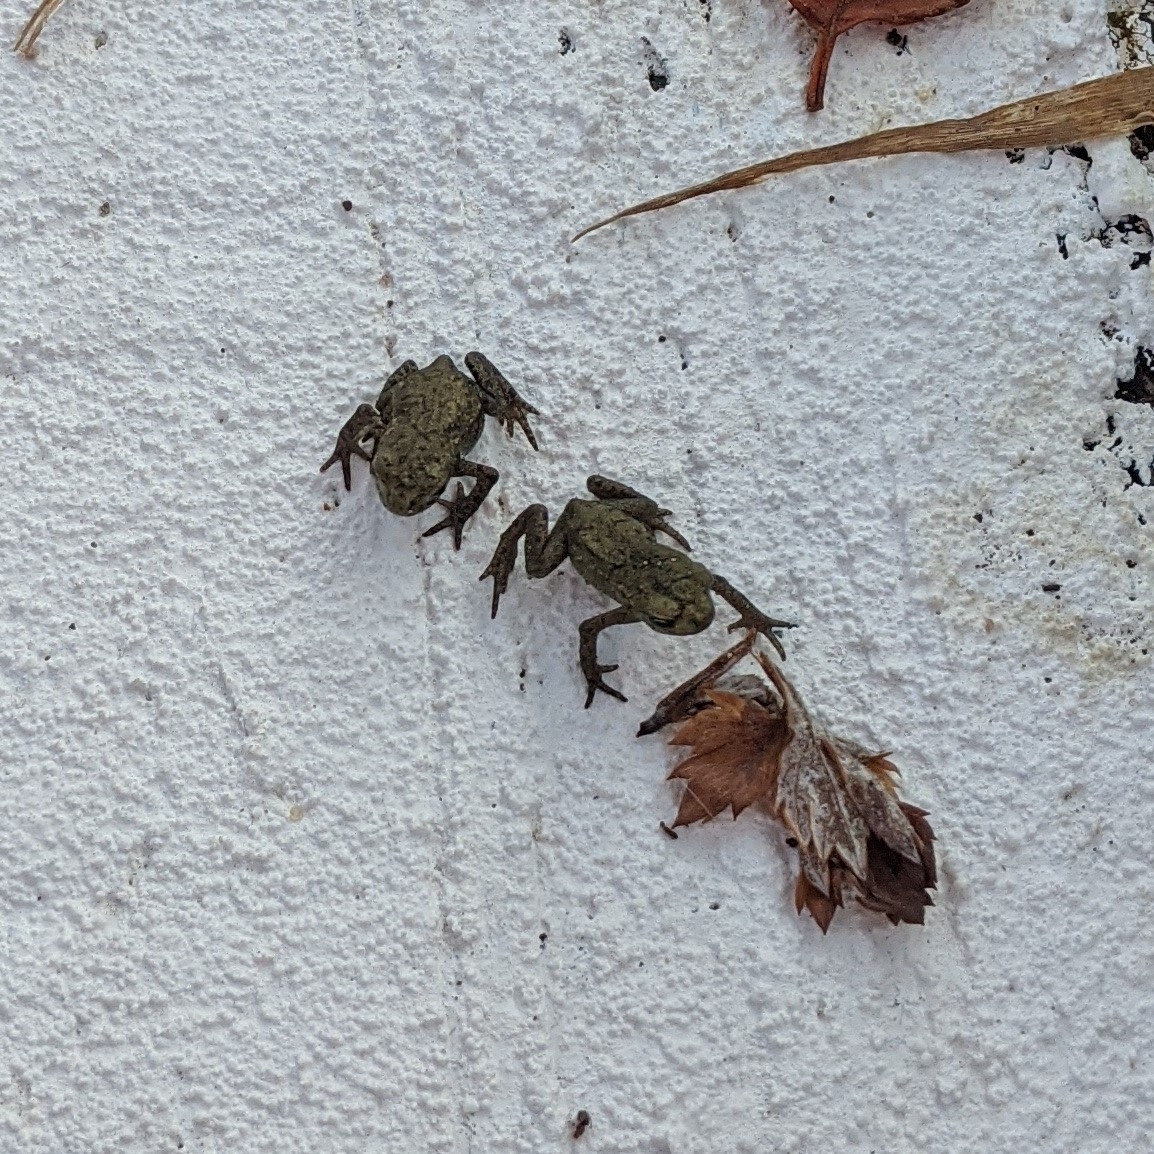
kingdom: Animalia
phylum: Chordata
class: Amphibia
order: Anura
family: Bufonidae
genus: Bufo
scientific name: Bufo bufo
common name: Common toad
